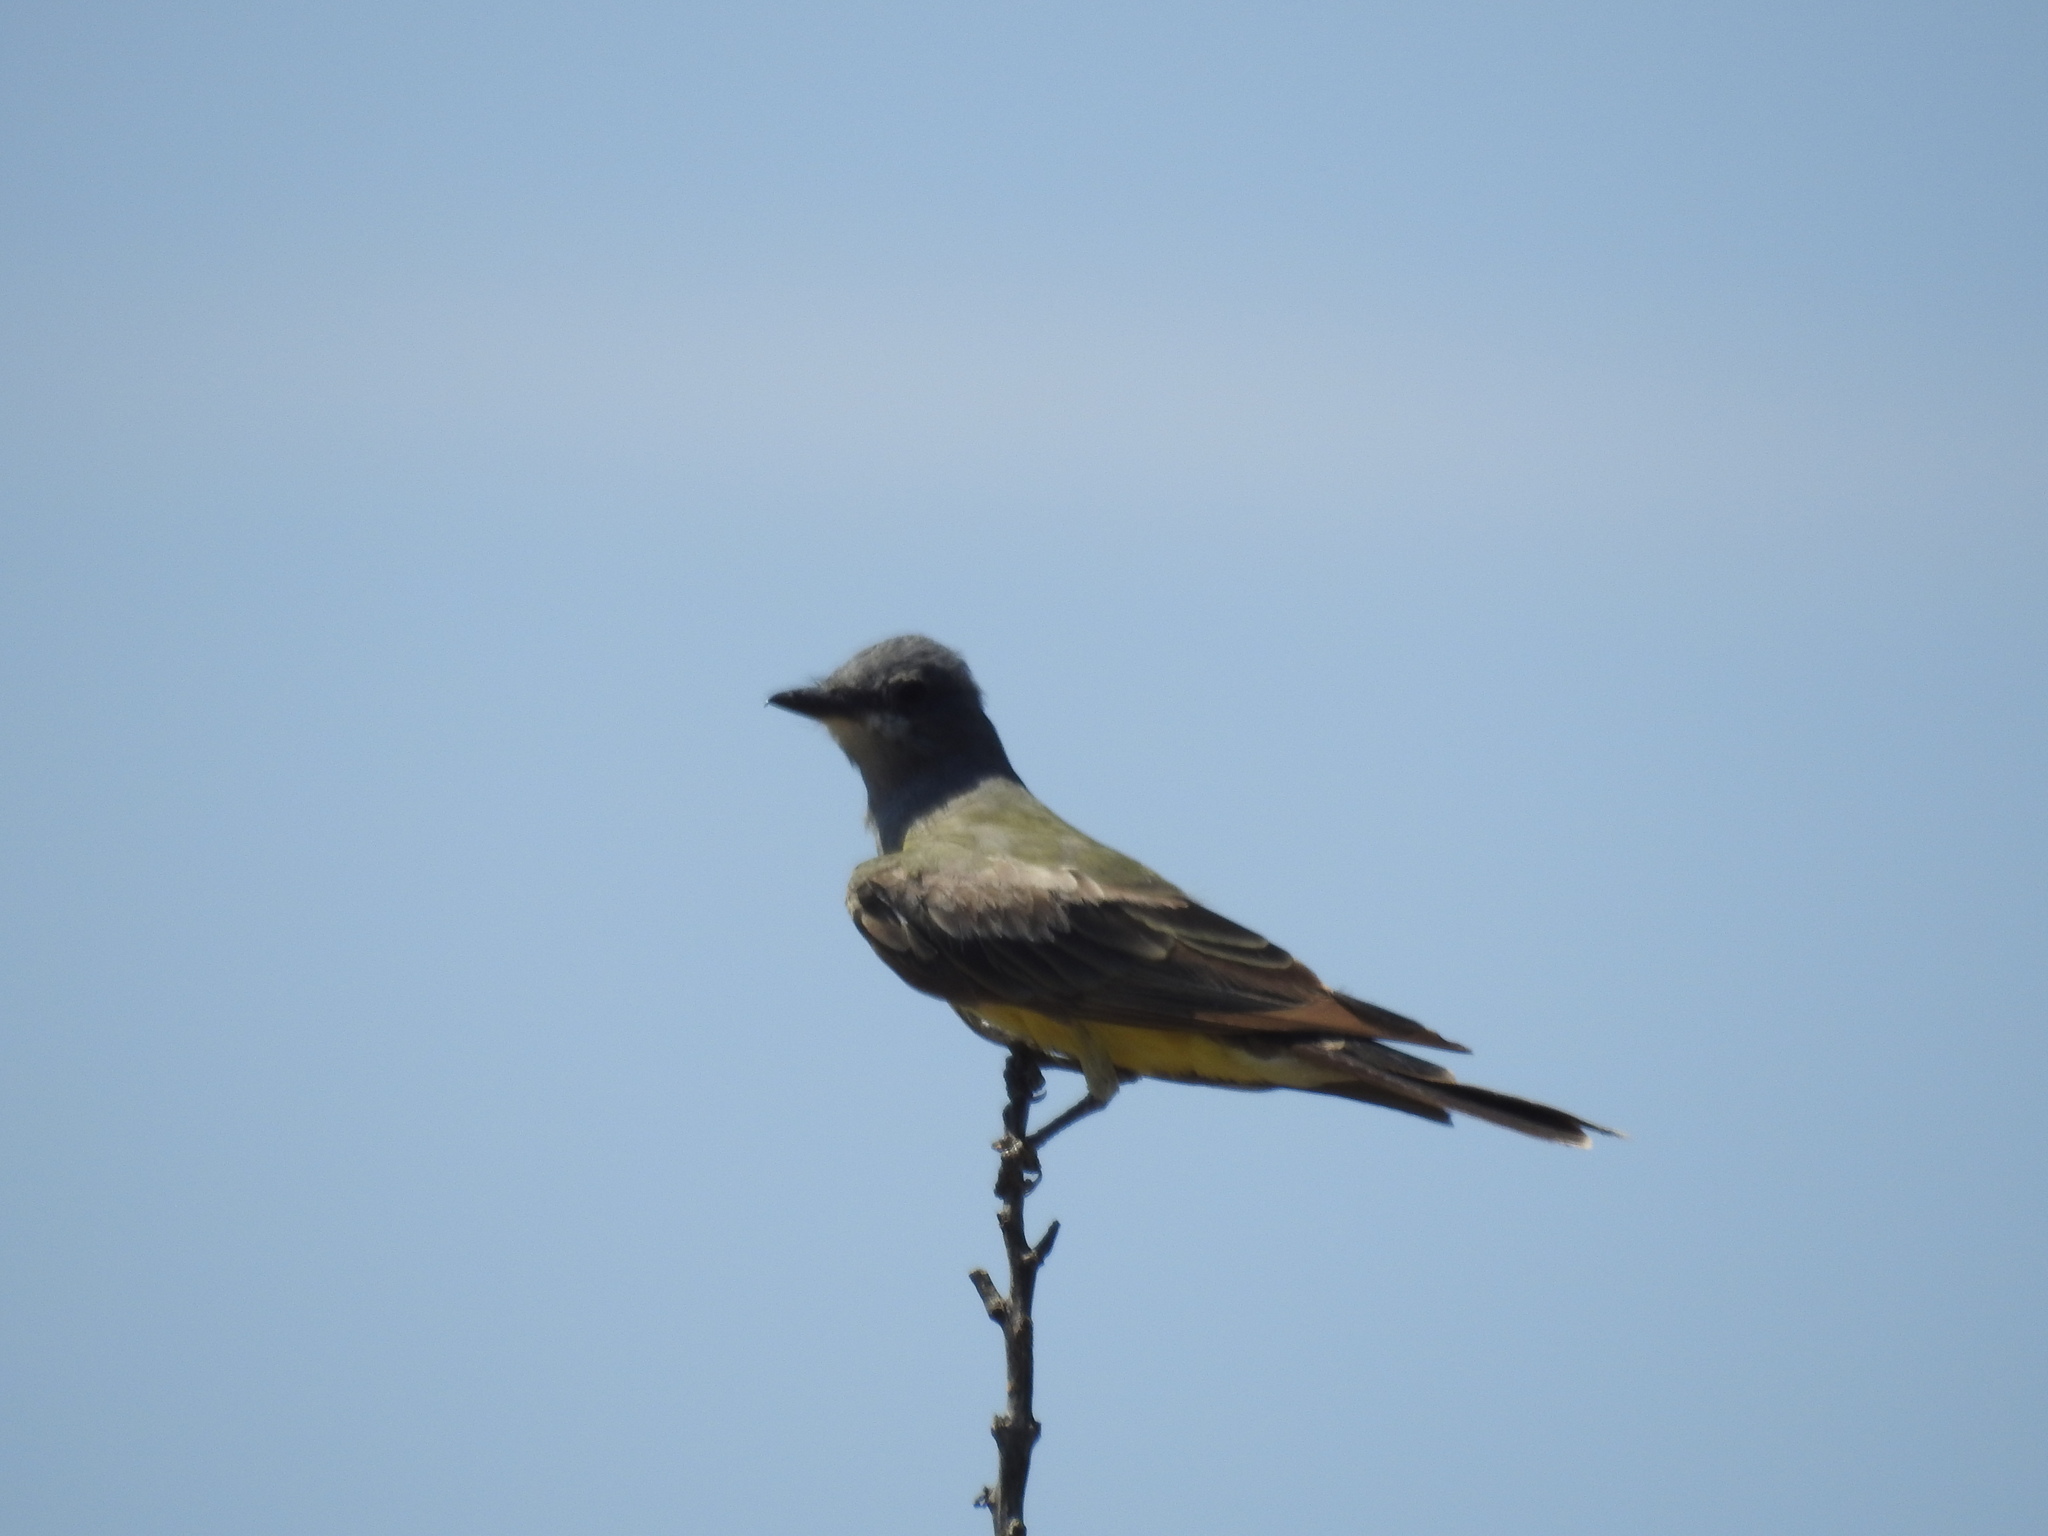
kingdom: Animalia
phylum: Chordata
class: Aves
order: Passeriformes
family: Tyrannidae
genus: Tyrannus
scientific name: Tyrannus vociferans
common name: Cassin's kingbird
